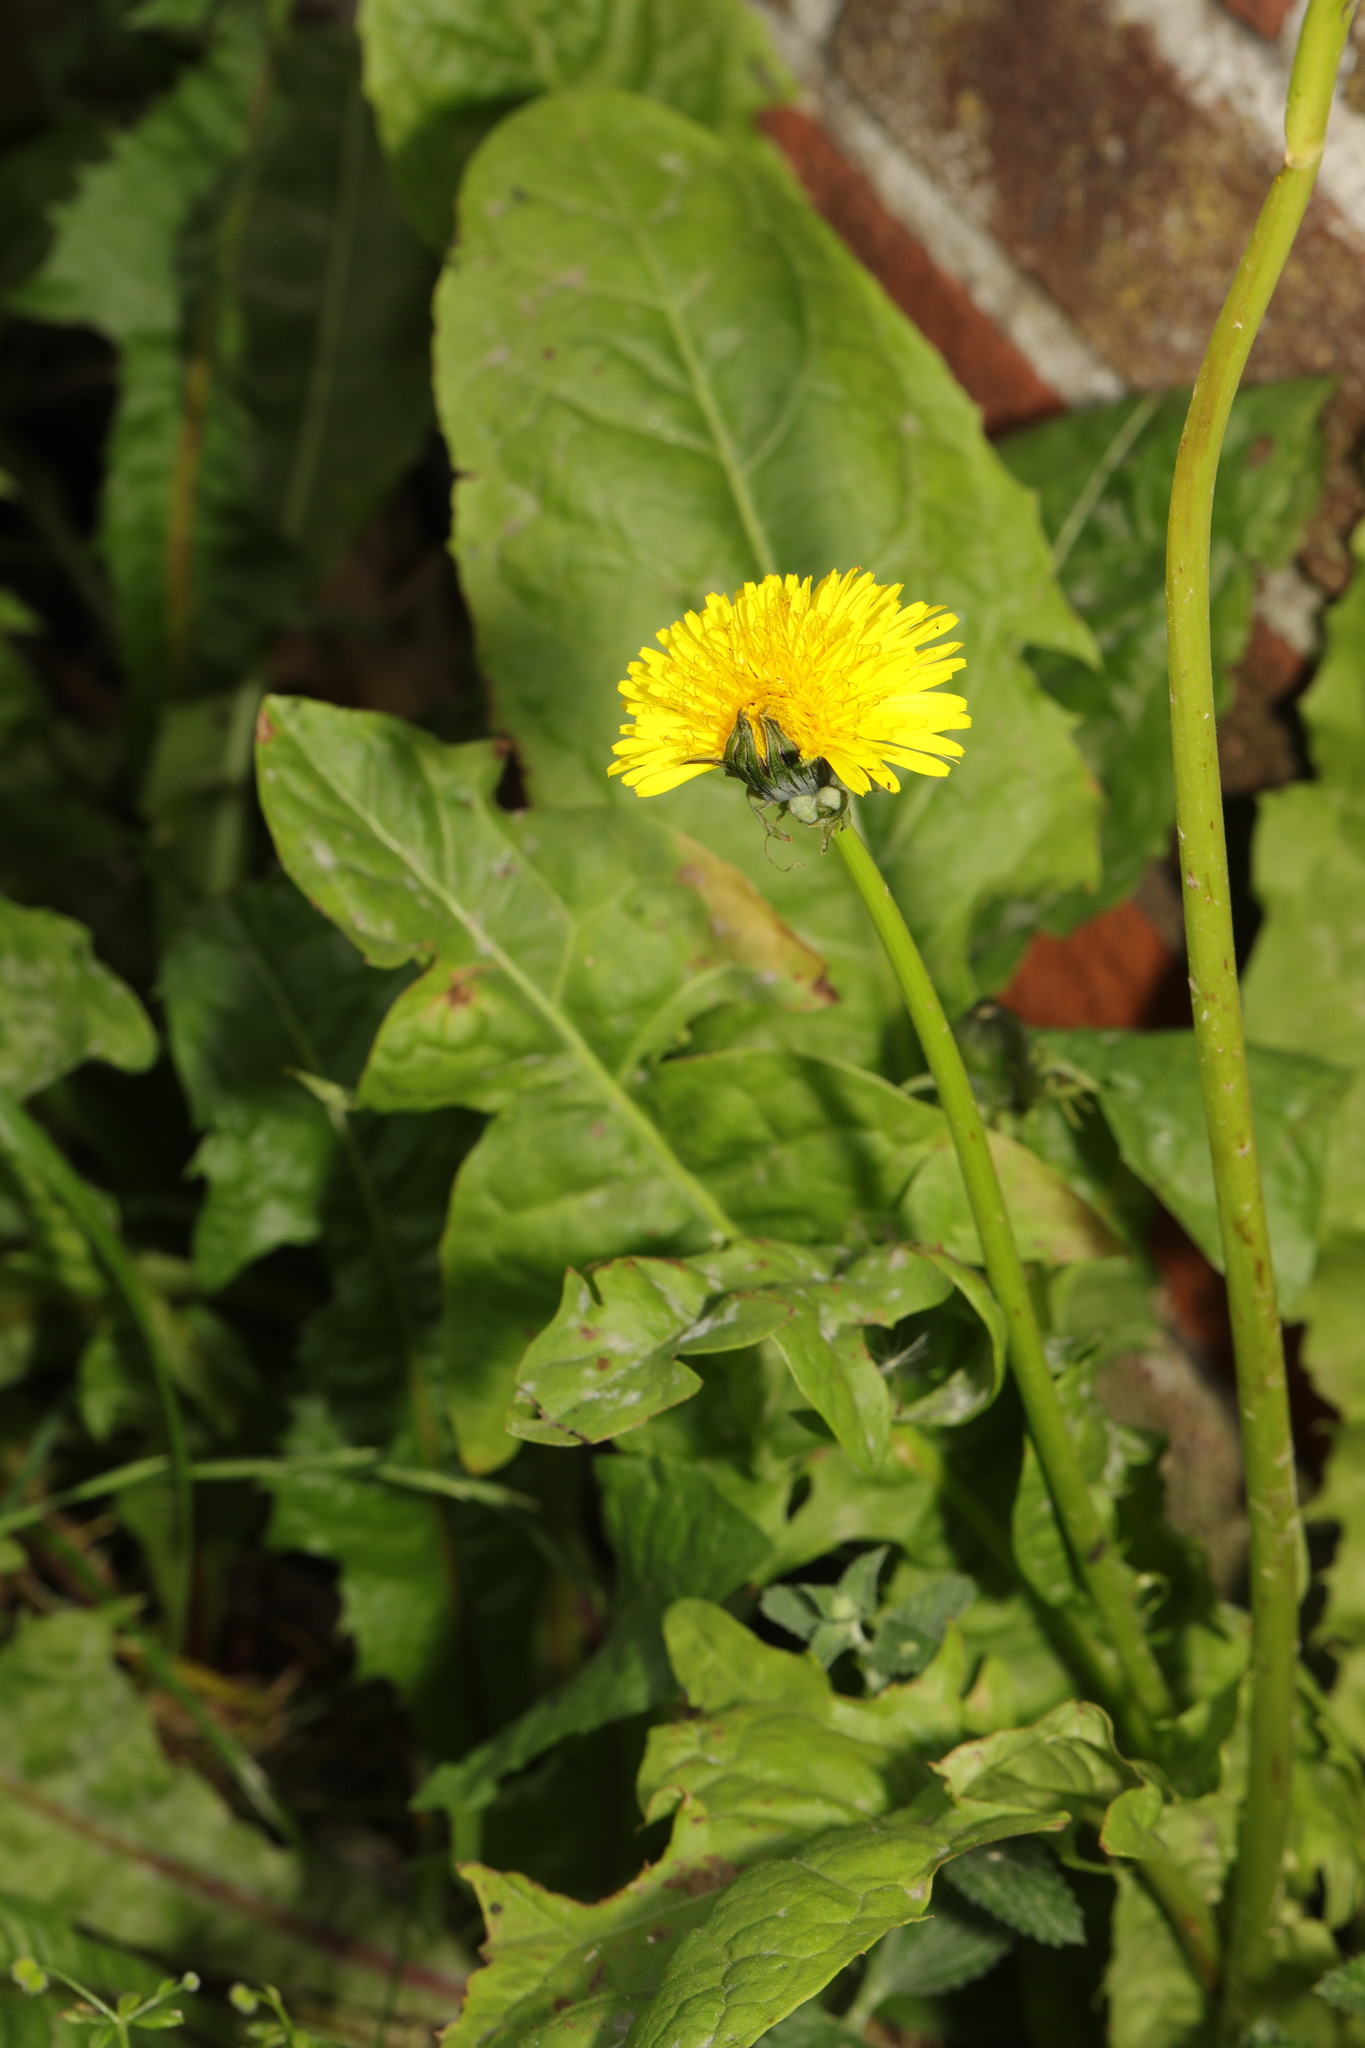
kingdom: Plantae
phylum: Tracheophyta
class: Magnoliopsida
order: Asterales
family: Asteraceae
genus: Taraxacum
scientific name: Taraxacum officinale
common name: Common dandelion
